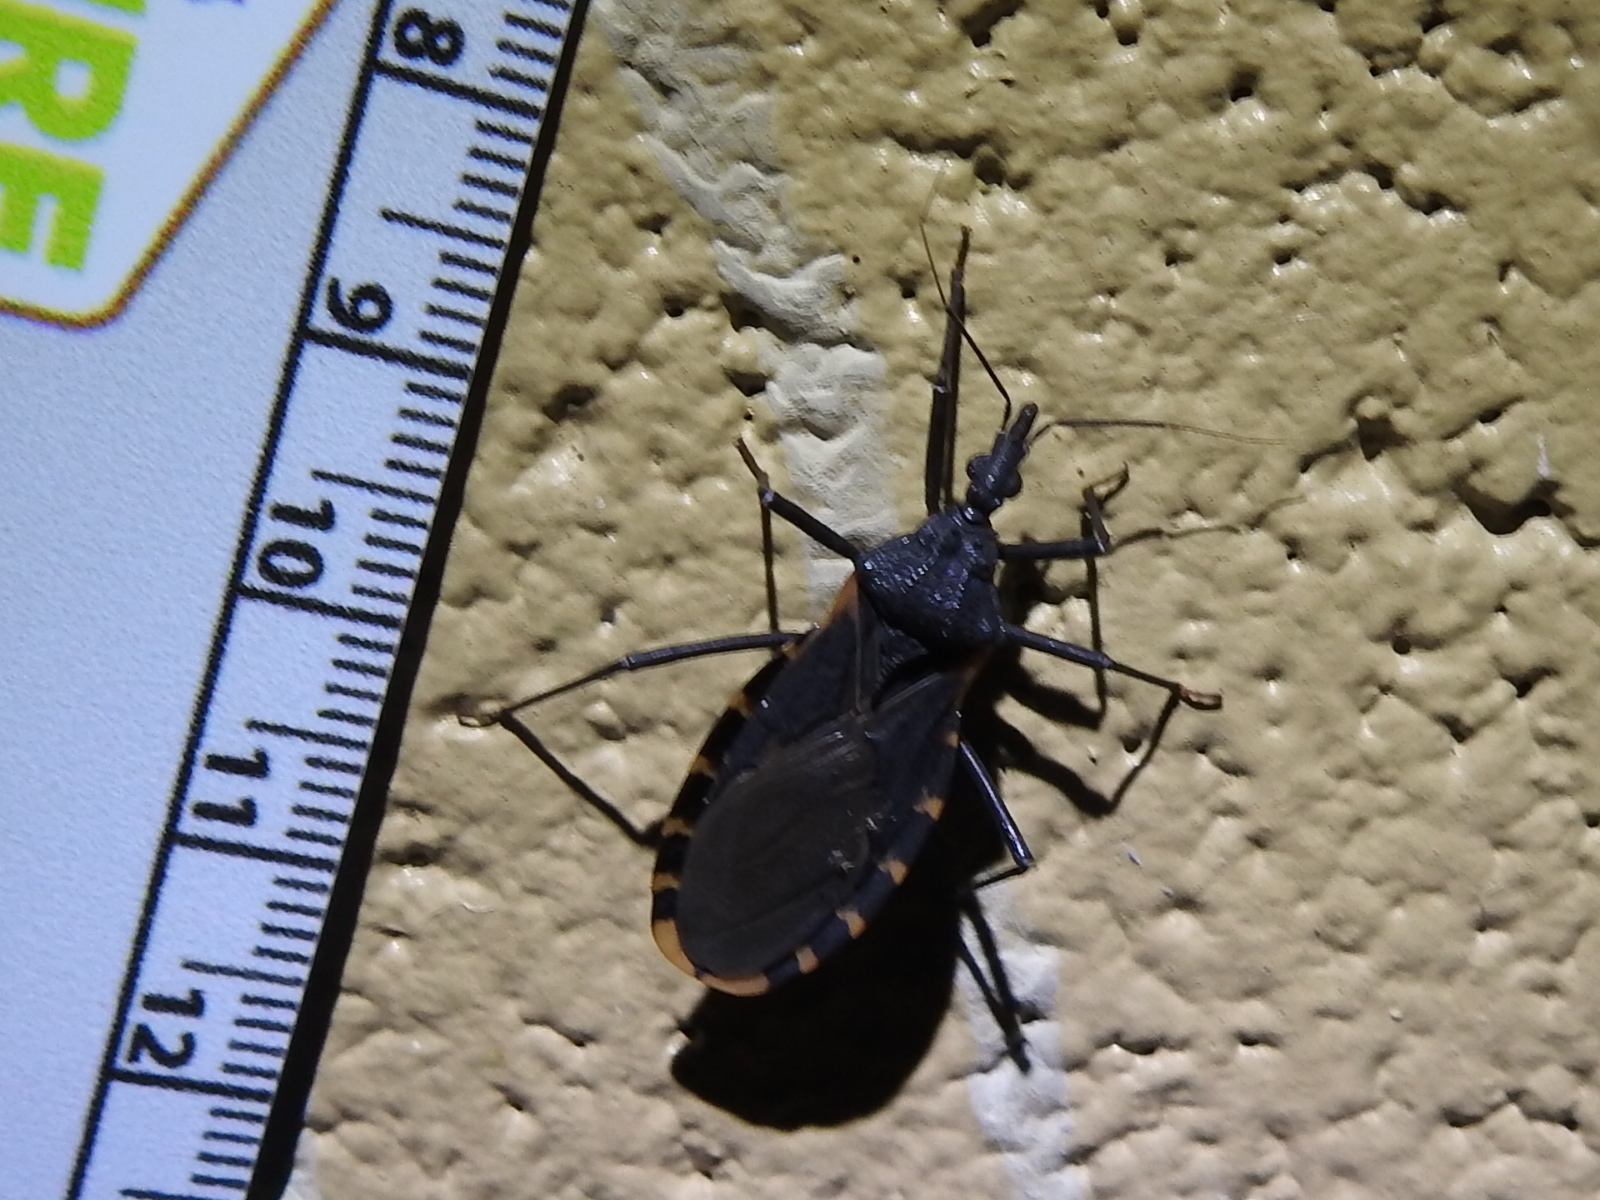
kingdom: Animalia
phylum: Arthropoda
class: Insecta
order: Hemiptera
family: Reduviidae
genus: Triatoma
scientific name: Triatoma gerstaeckeri
